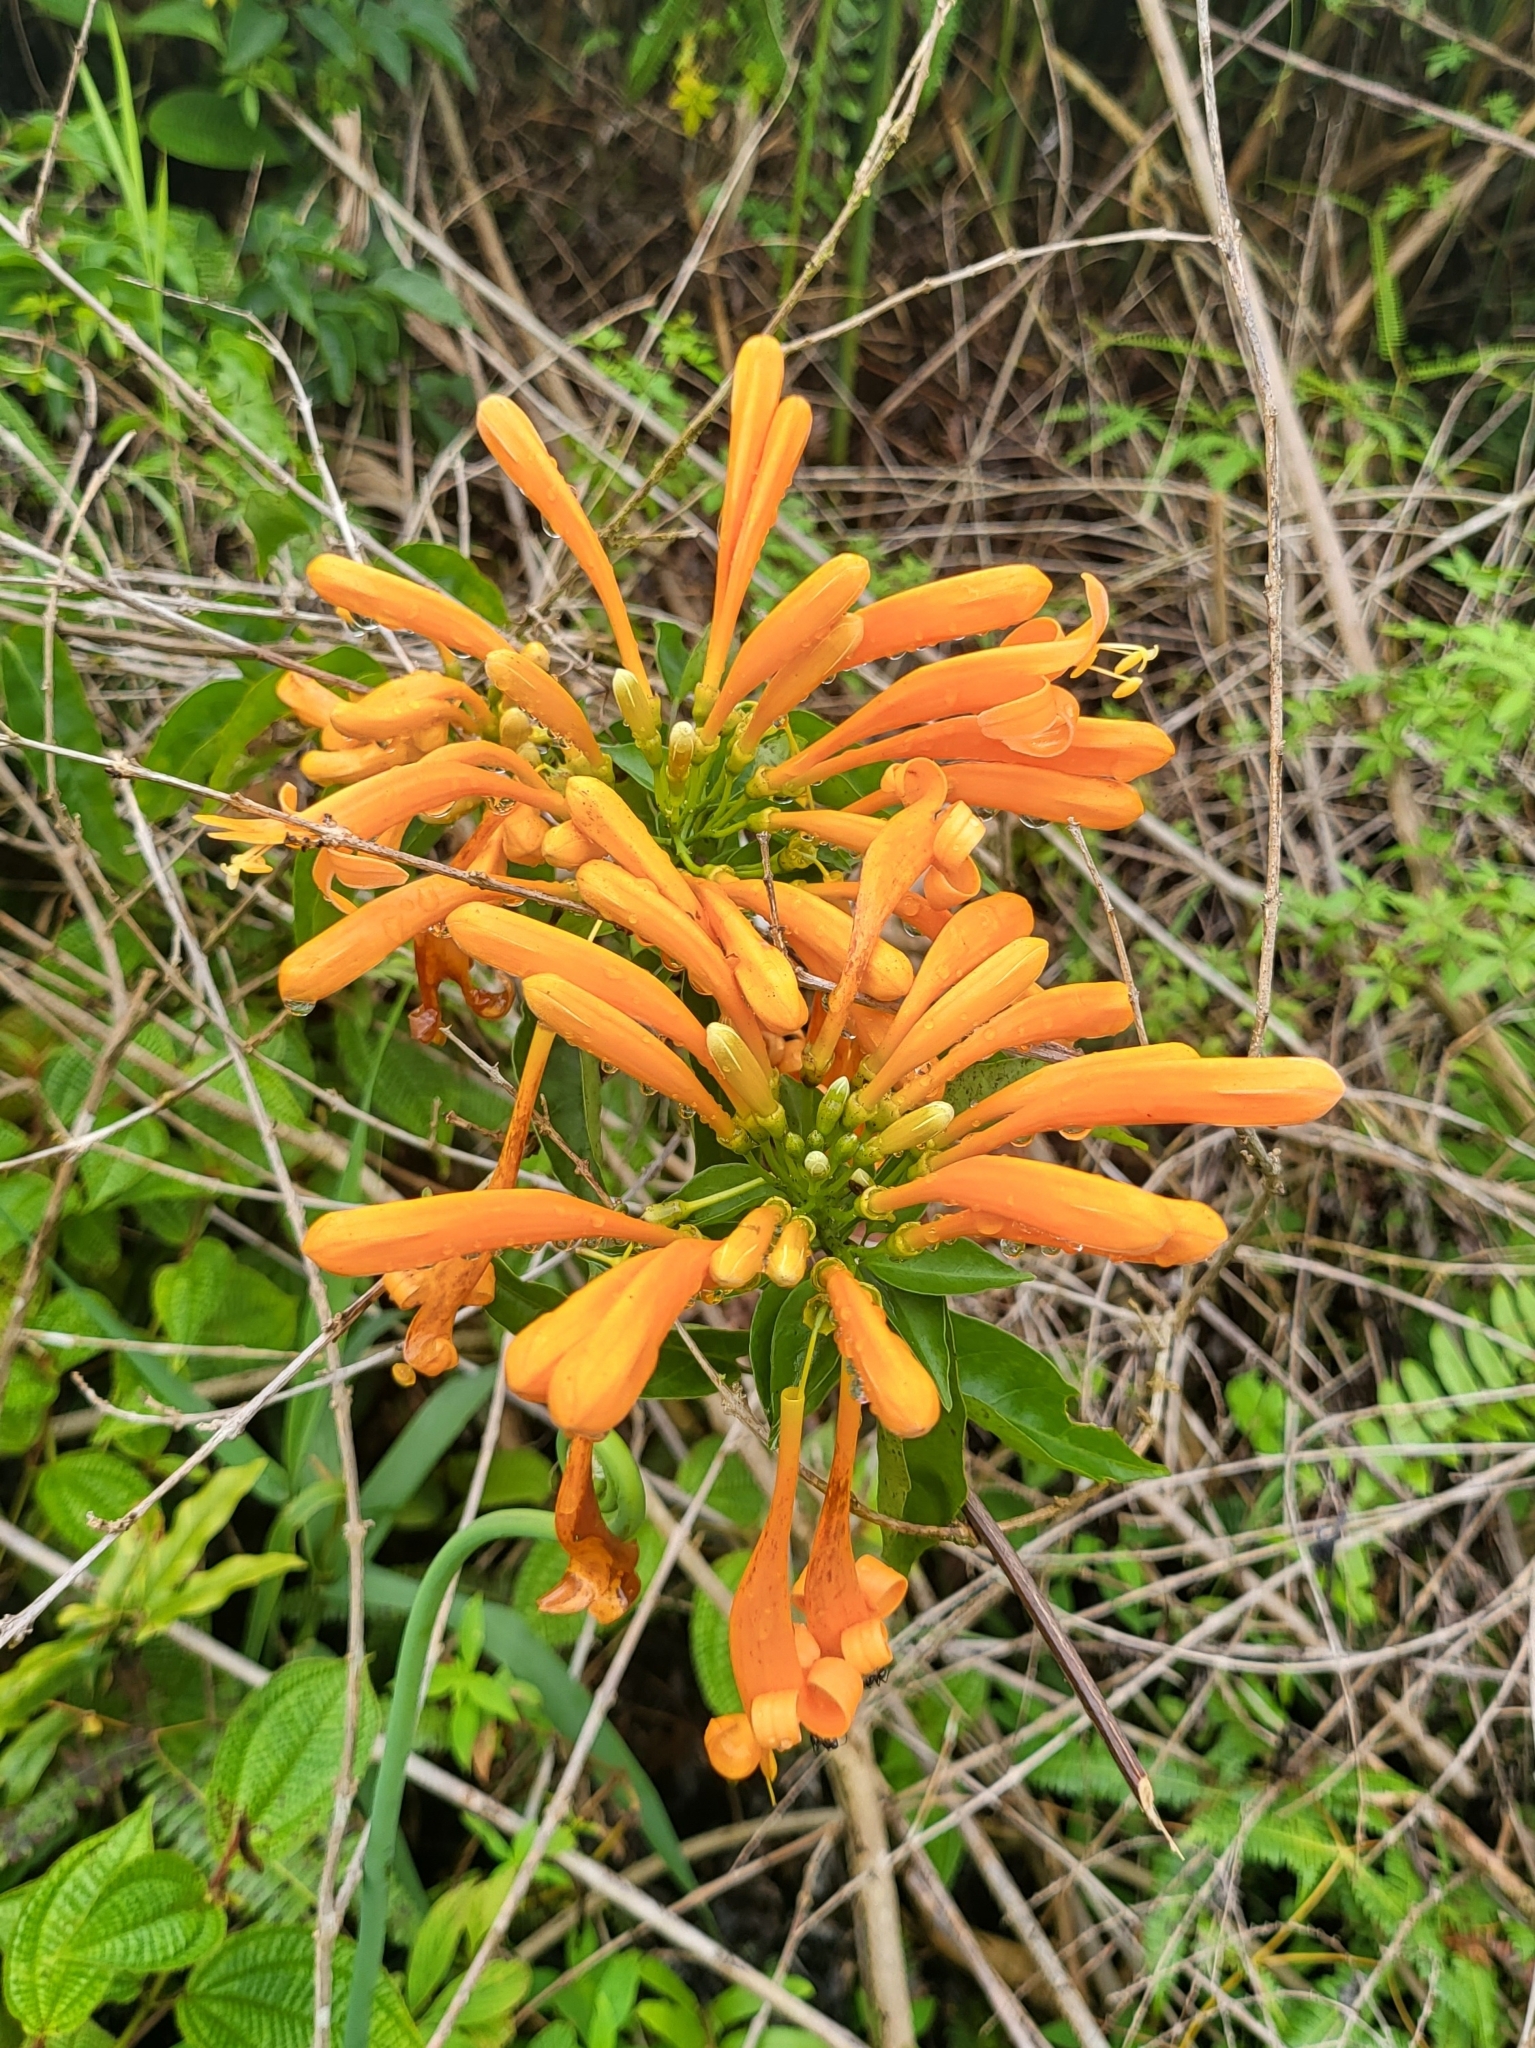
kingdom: Plantae
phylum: Tracheophyta
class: Magnoliopsida
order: Lamiales
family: Bignoniaceae
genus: Pyrostegia
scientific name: Pyrostegia venusta
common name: Flamevine
